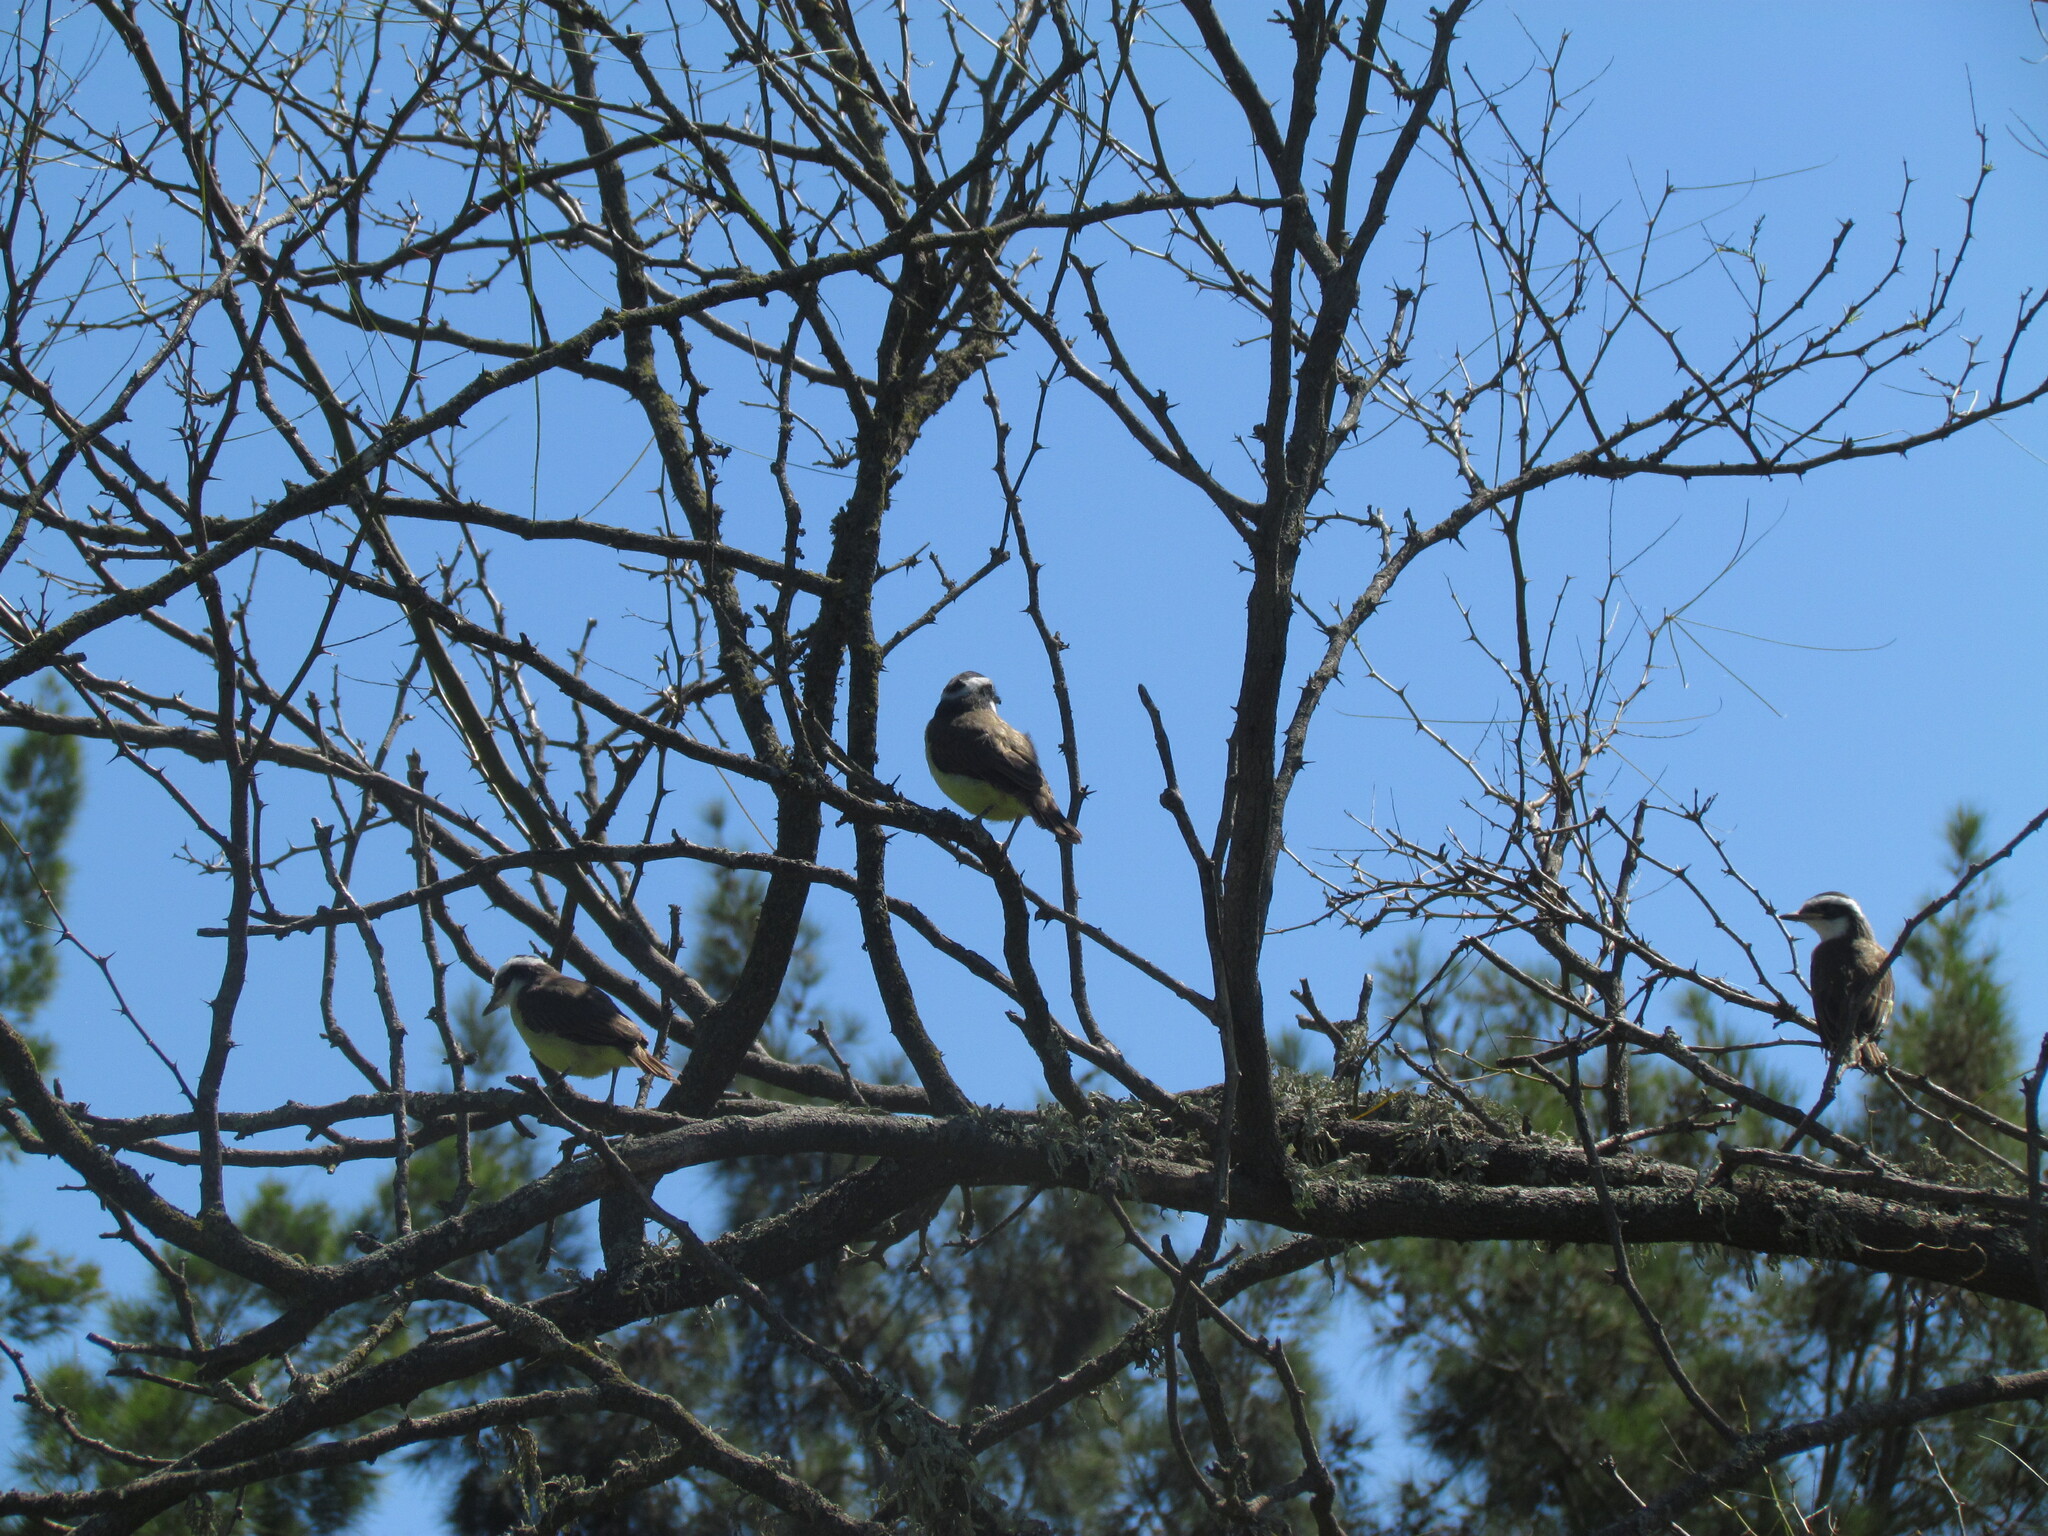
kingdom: Animalia
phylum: Chordata
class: Aves
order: Passeriformes
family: Tyrannidae
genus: Pitangus
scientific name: Pitangus sulphuratus
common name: Great kiskadee
